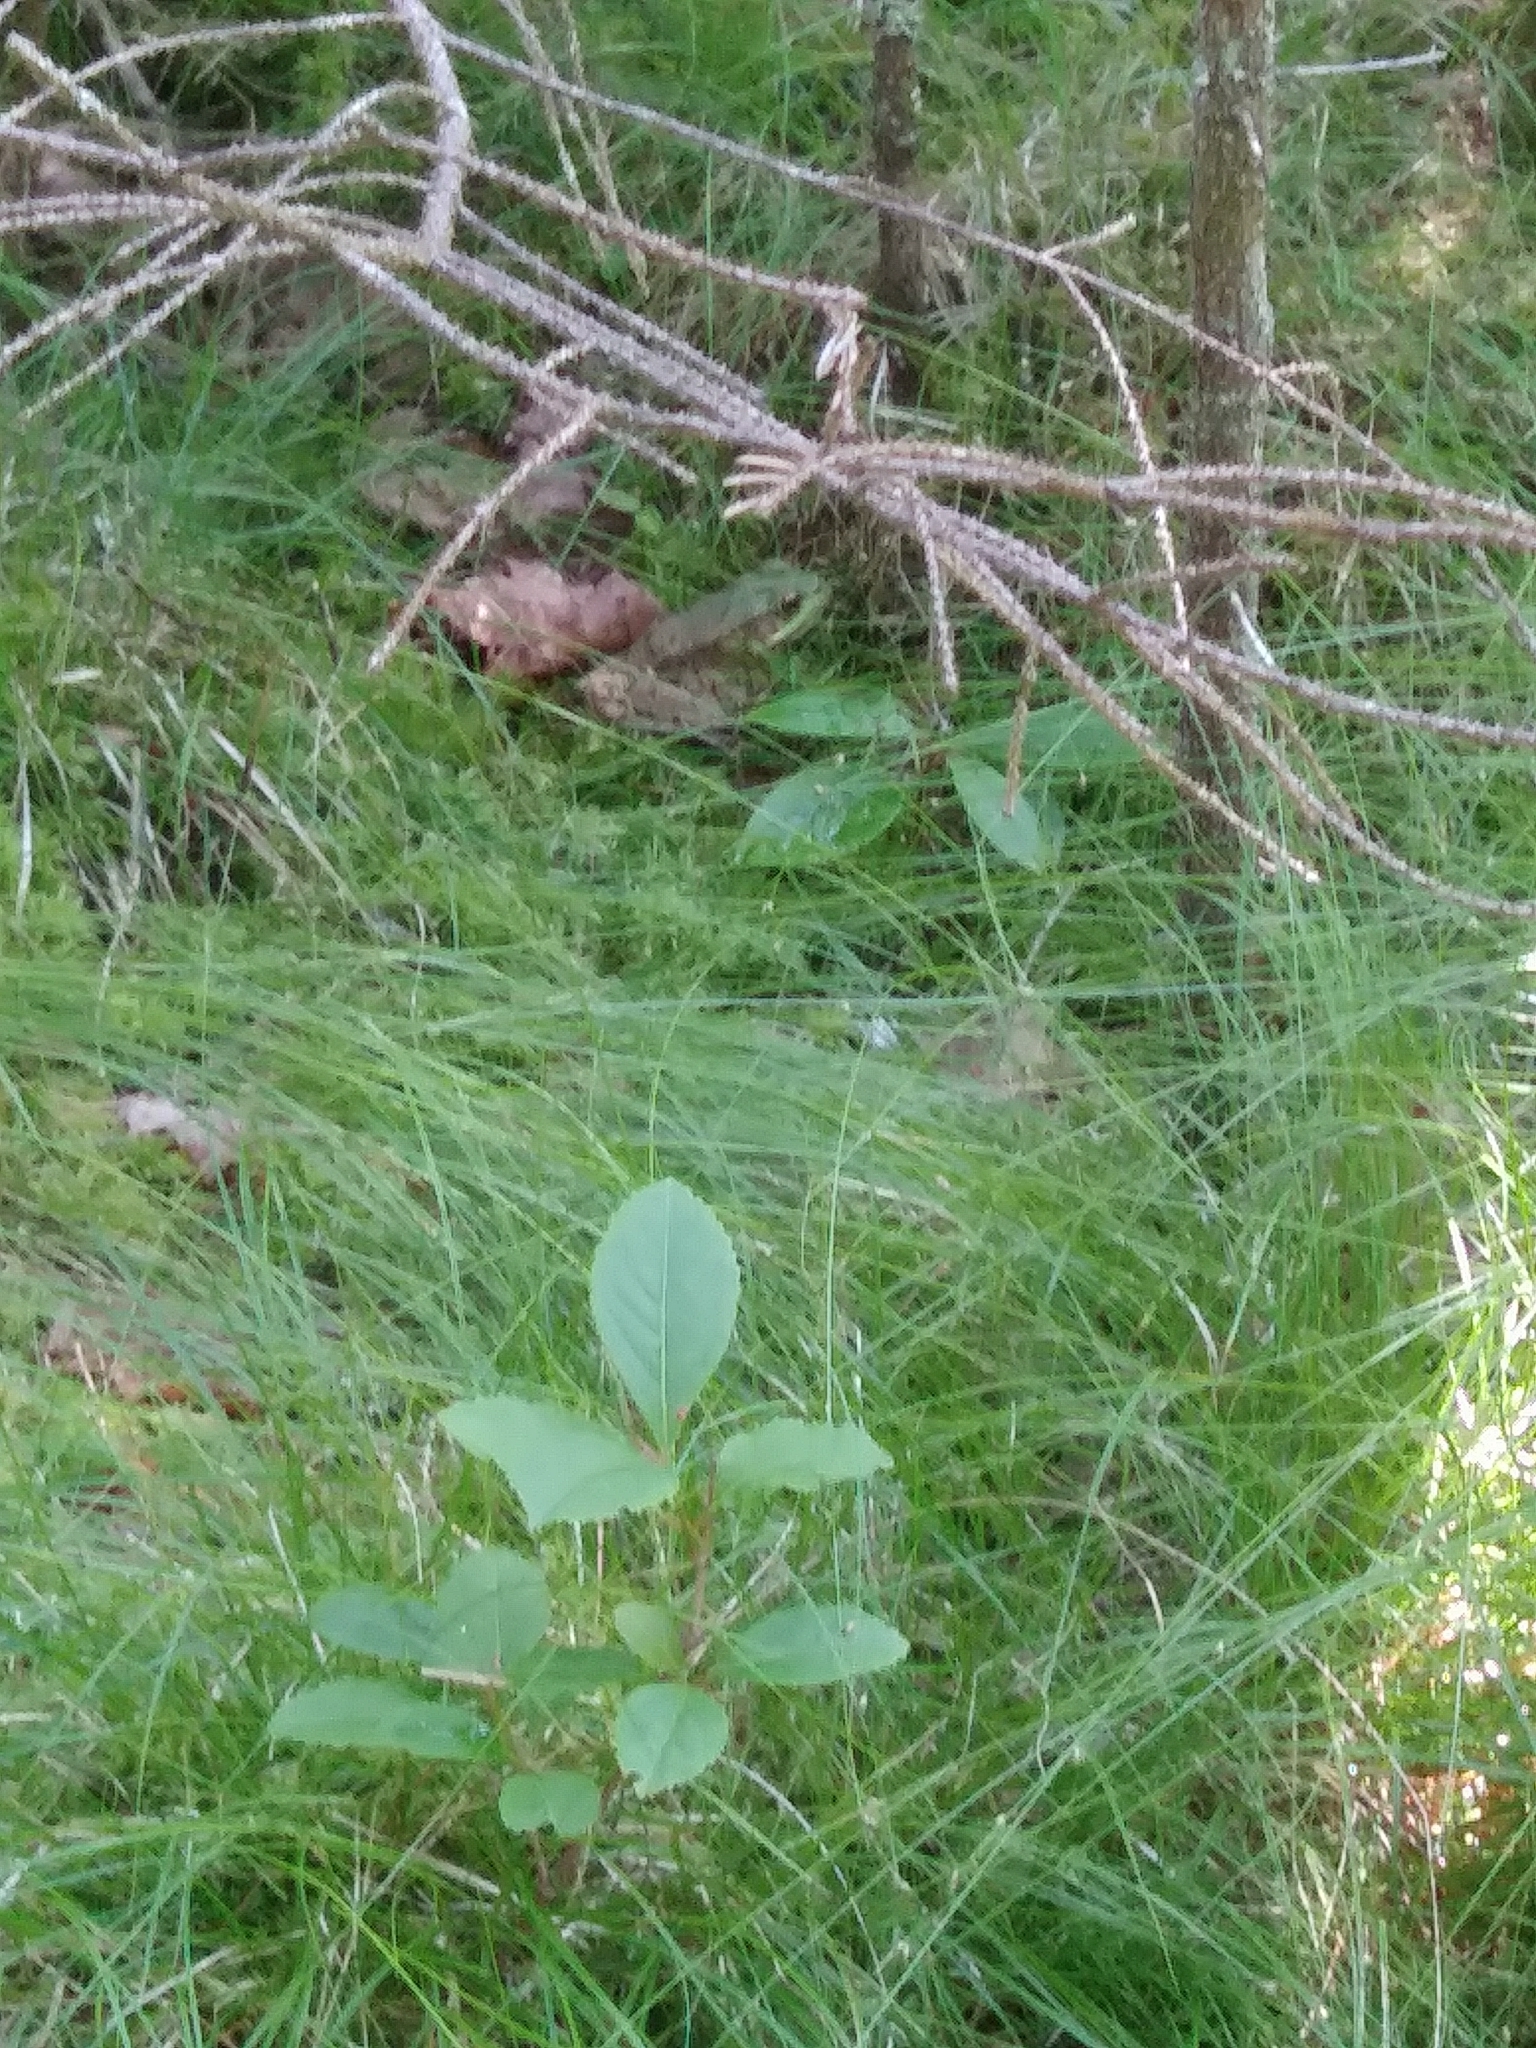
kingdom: Animalia
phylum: Chordata
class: Amphibia
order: Anura
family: Ranidae
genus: Lithobates
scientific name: Lithobates clamitans
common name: Green frog
